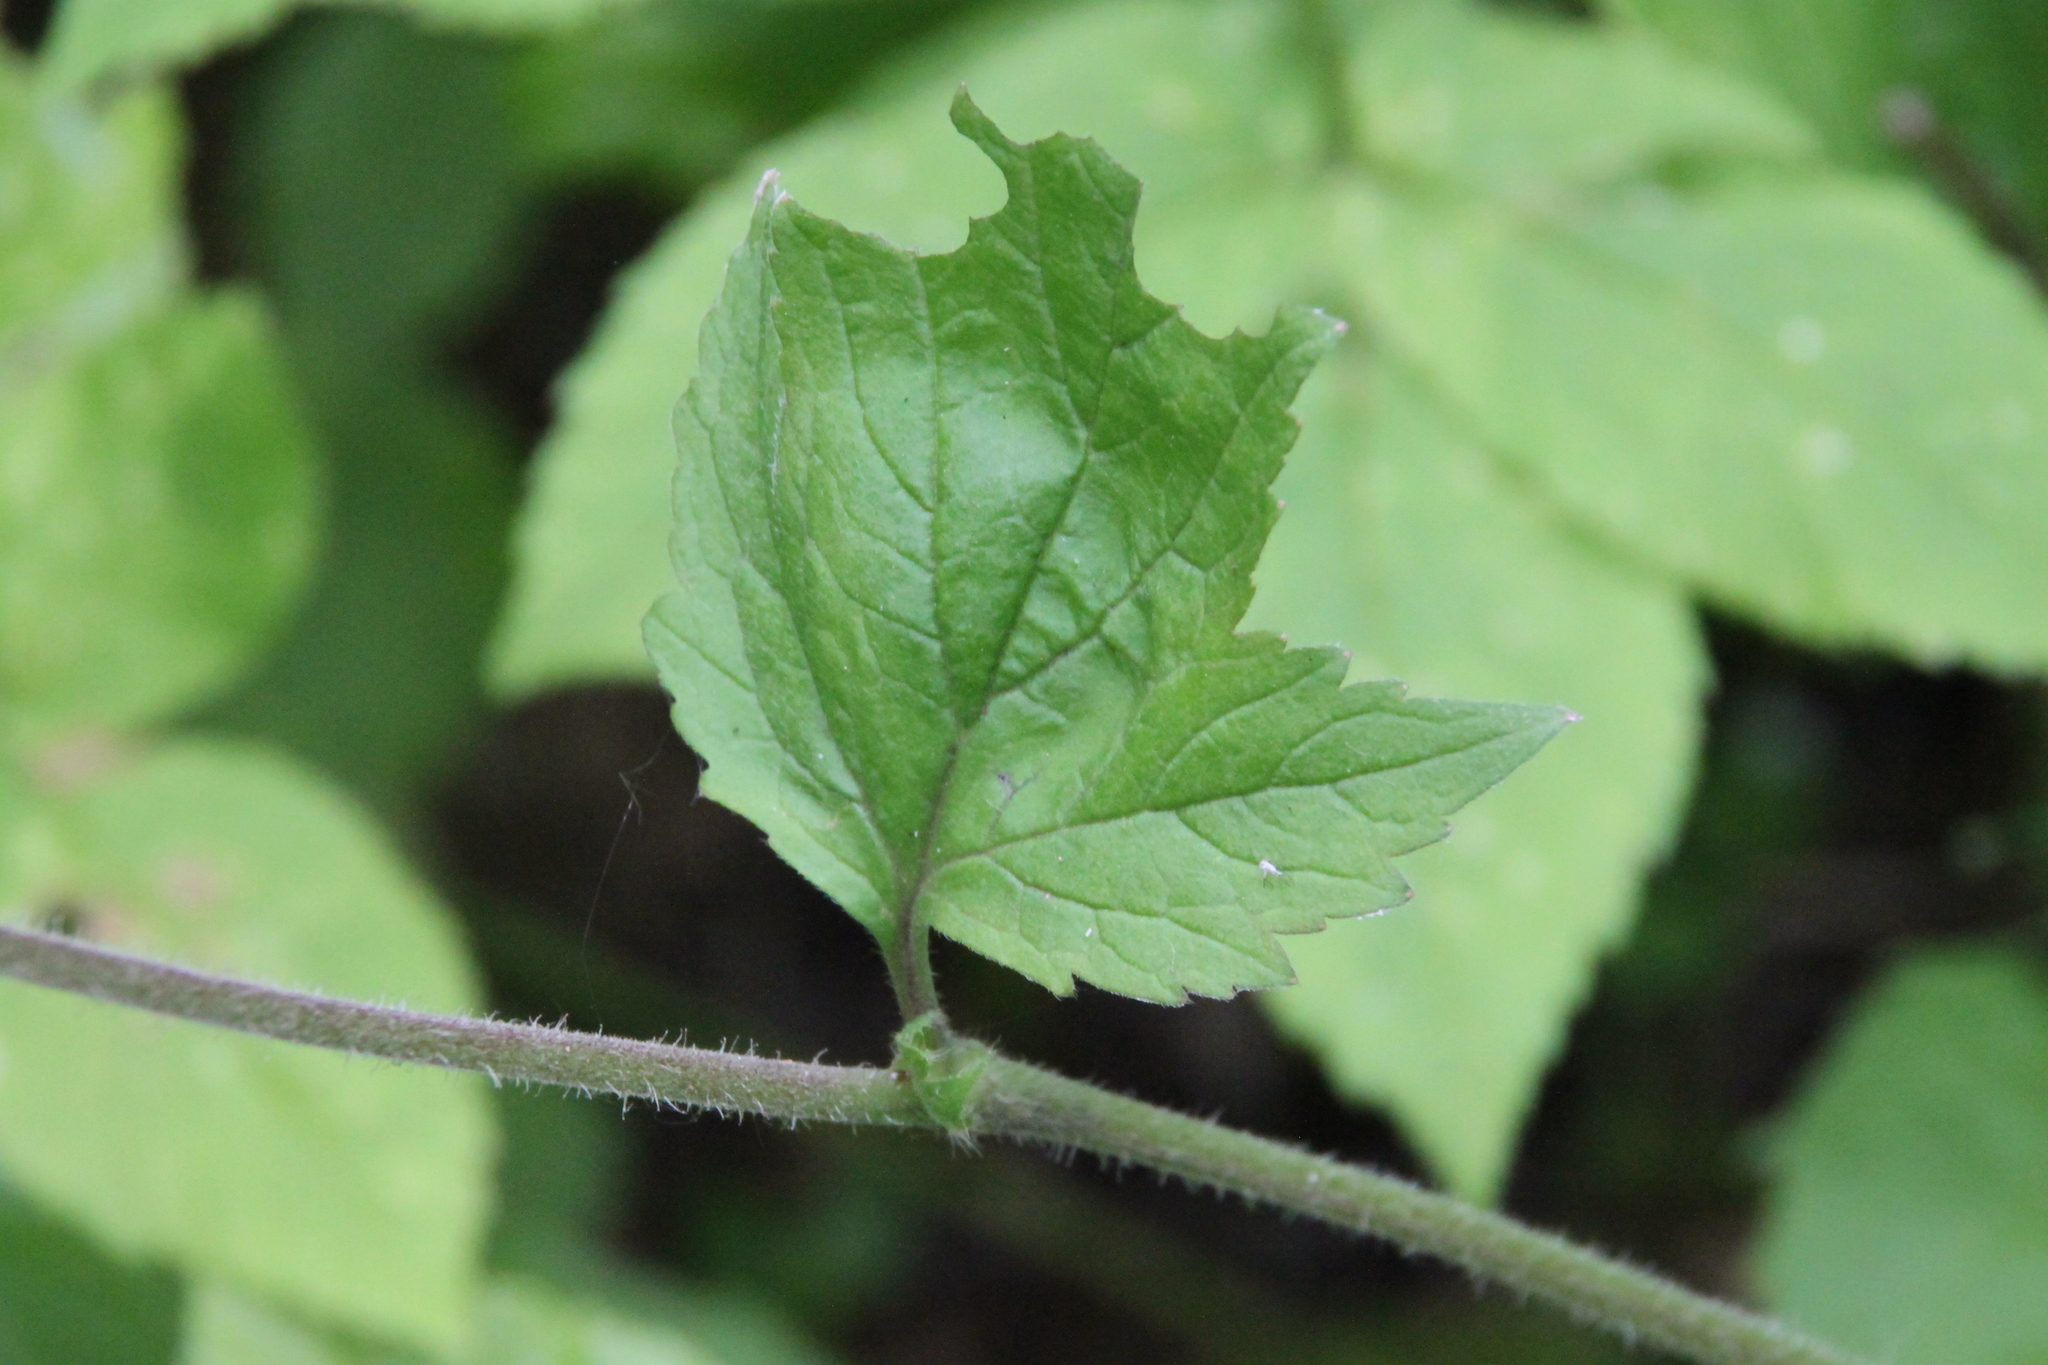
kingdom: Plantae
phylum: Tracheophyta
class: Magnoliopsida
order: Rosales
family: Rosaceae
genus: Geum
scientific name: Geum rivale
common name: Water avens
